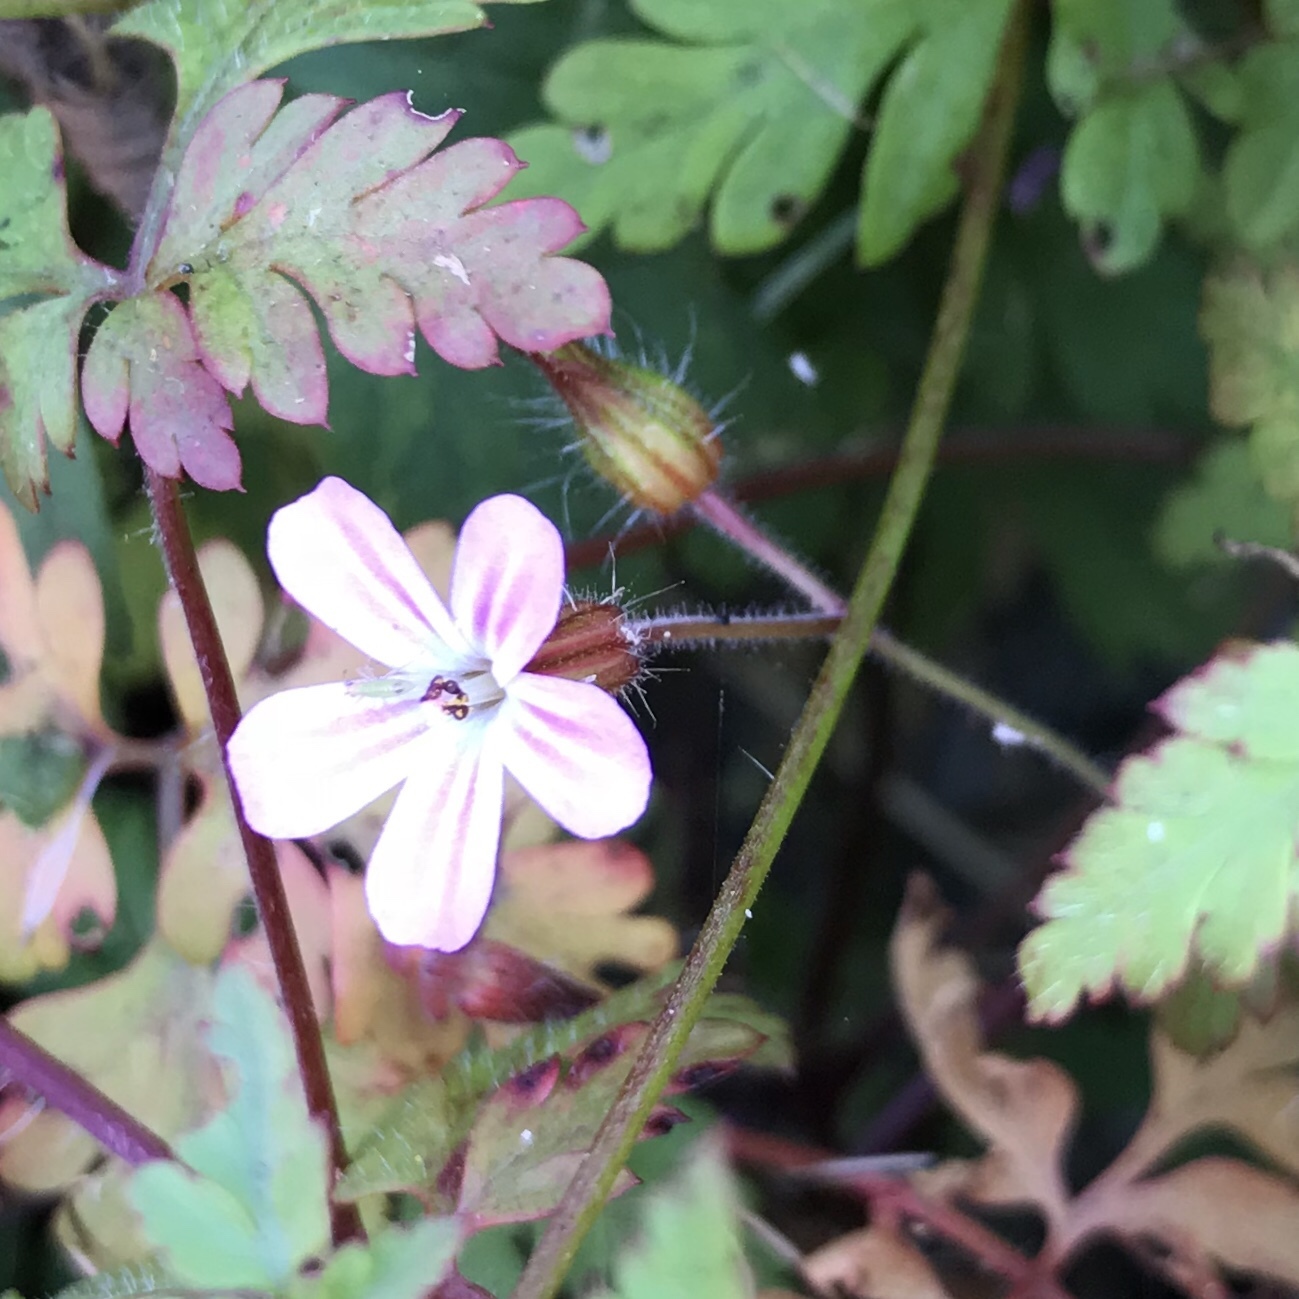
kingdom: Plantae
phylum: Tracheophyta
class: Magnoliopsida
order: Geraniales
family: Geraniaceae
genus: Geranium
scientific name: Geranium robertianum
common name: Herb-robert
